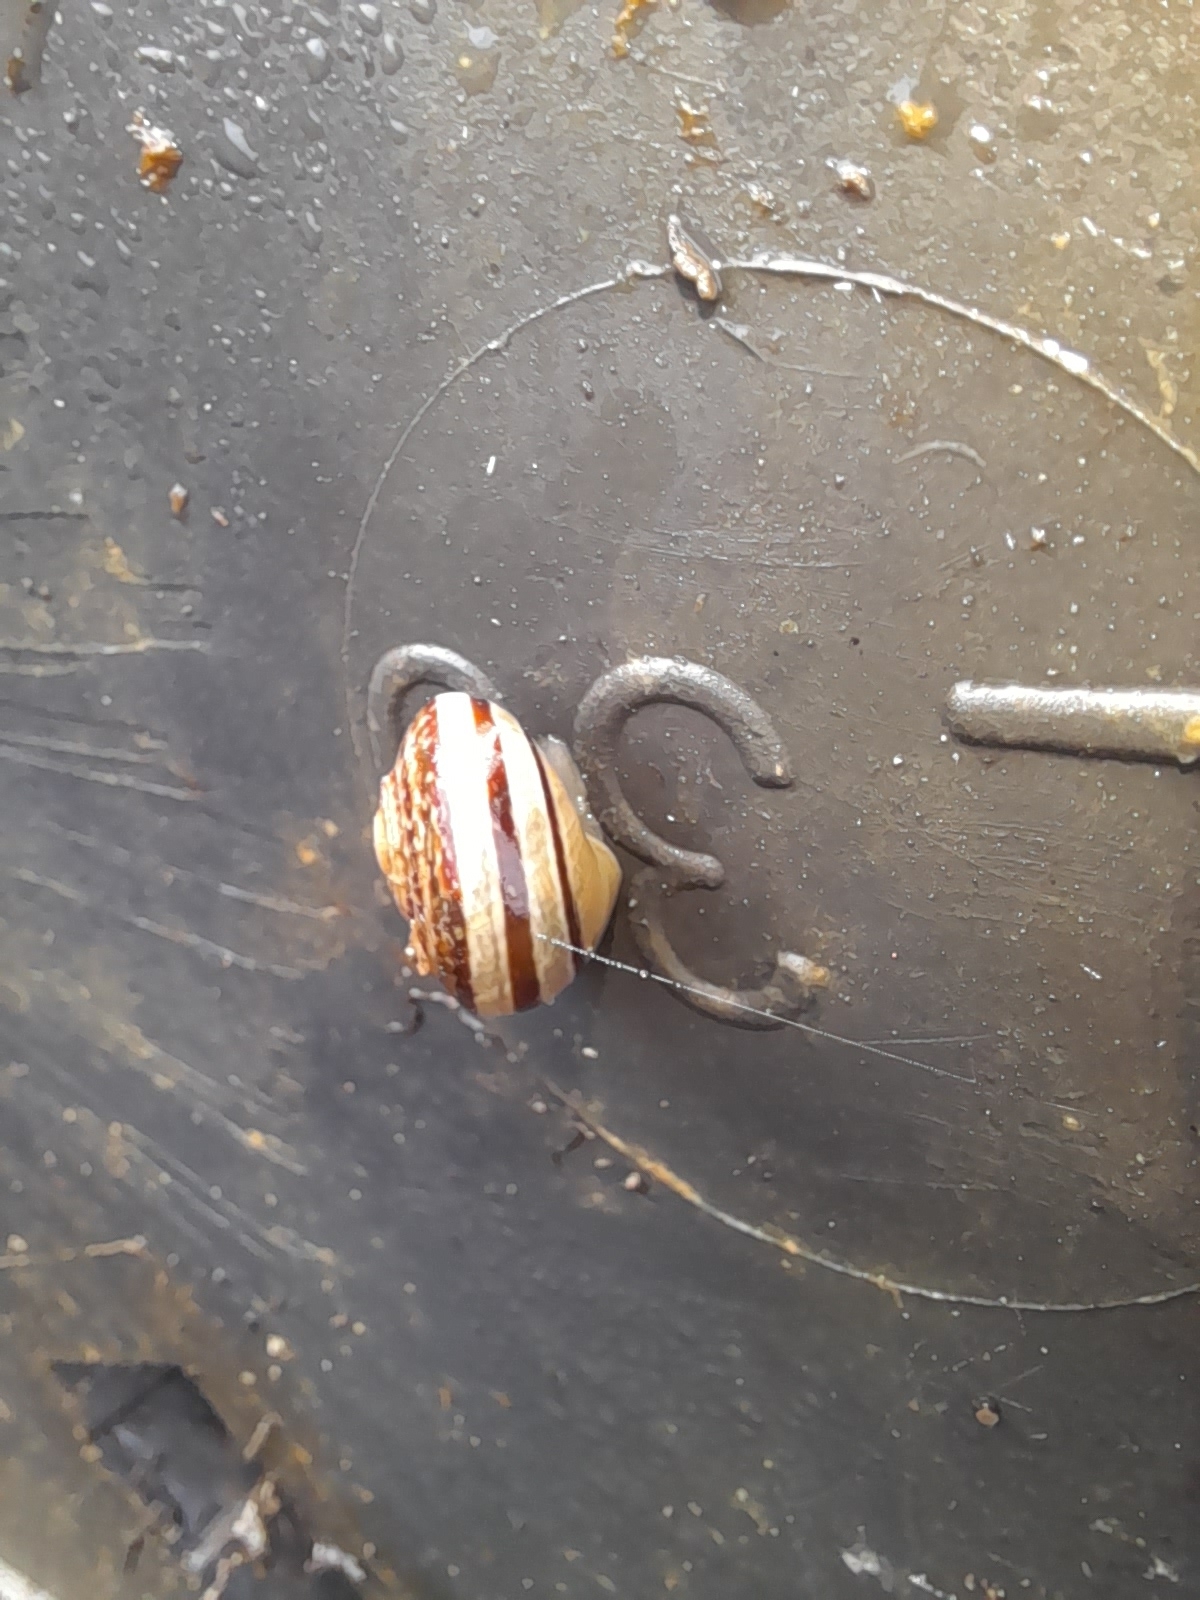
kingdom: Animalia
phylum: Mollusca
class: Gastropoda
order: Stylommatophora
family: Helicidae
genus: Eobania
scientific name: Eobania vermiculata
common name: Chocolateband snail
